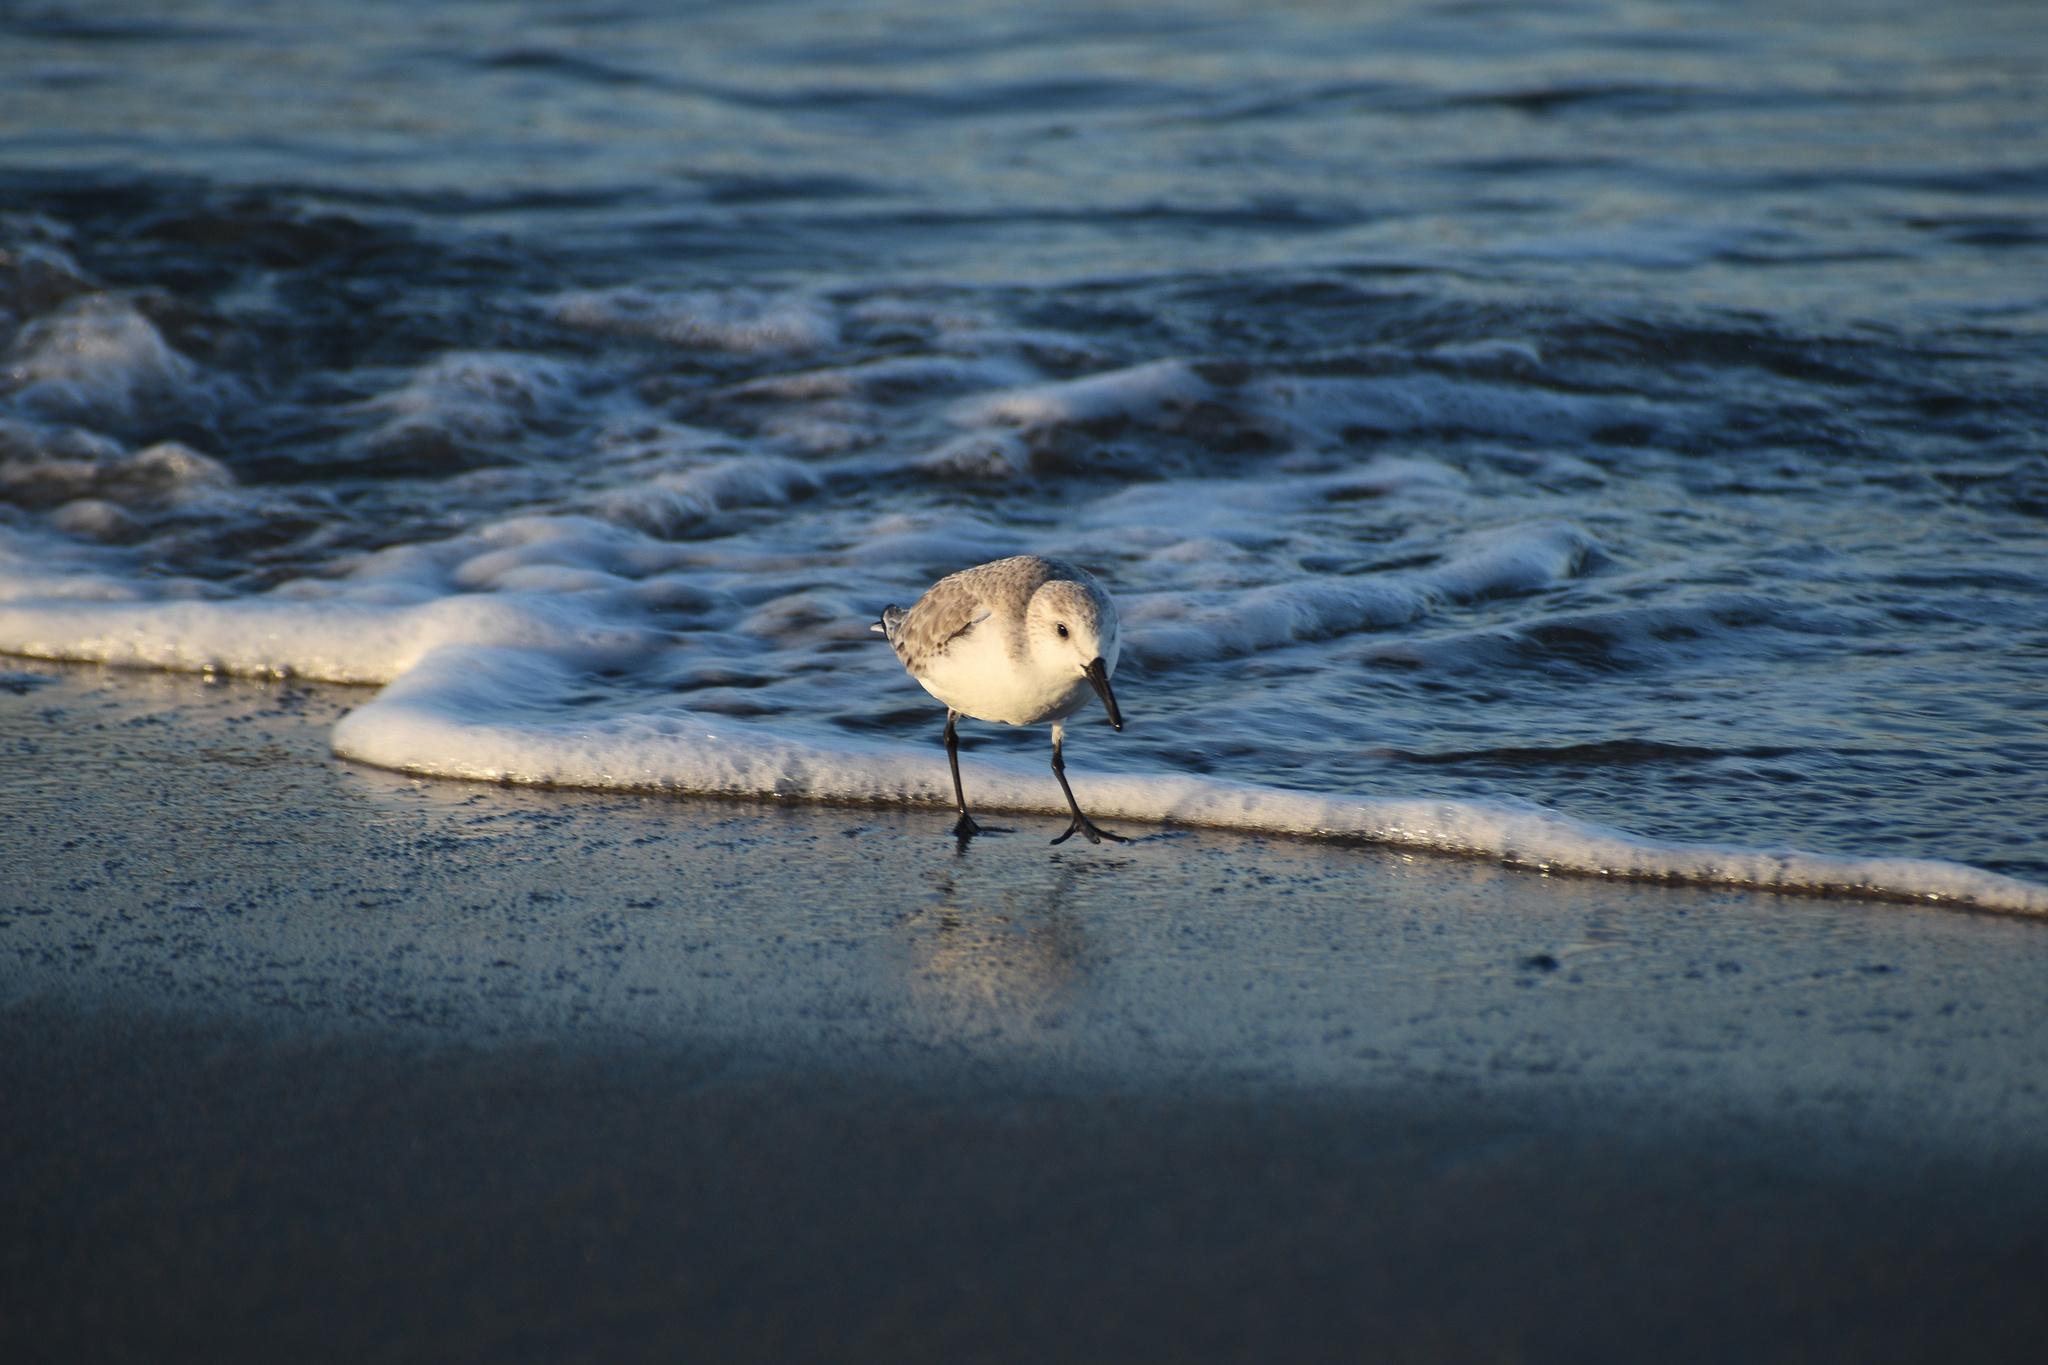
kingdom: Animalia
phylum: Chordata
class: Aves
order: Charadriiformes
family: Scolopacidae
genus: Calidris
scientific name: Calidris alba
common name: Sanderling
